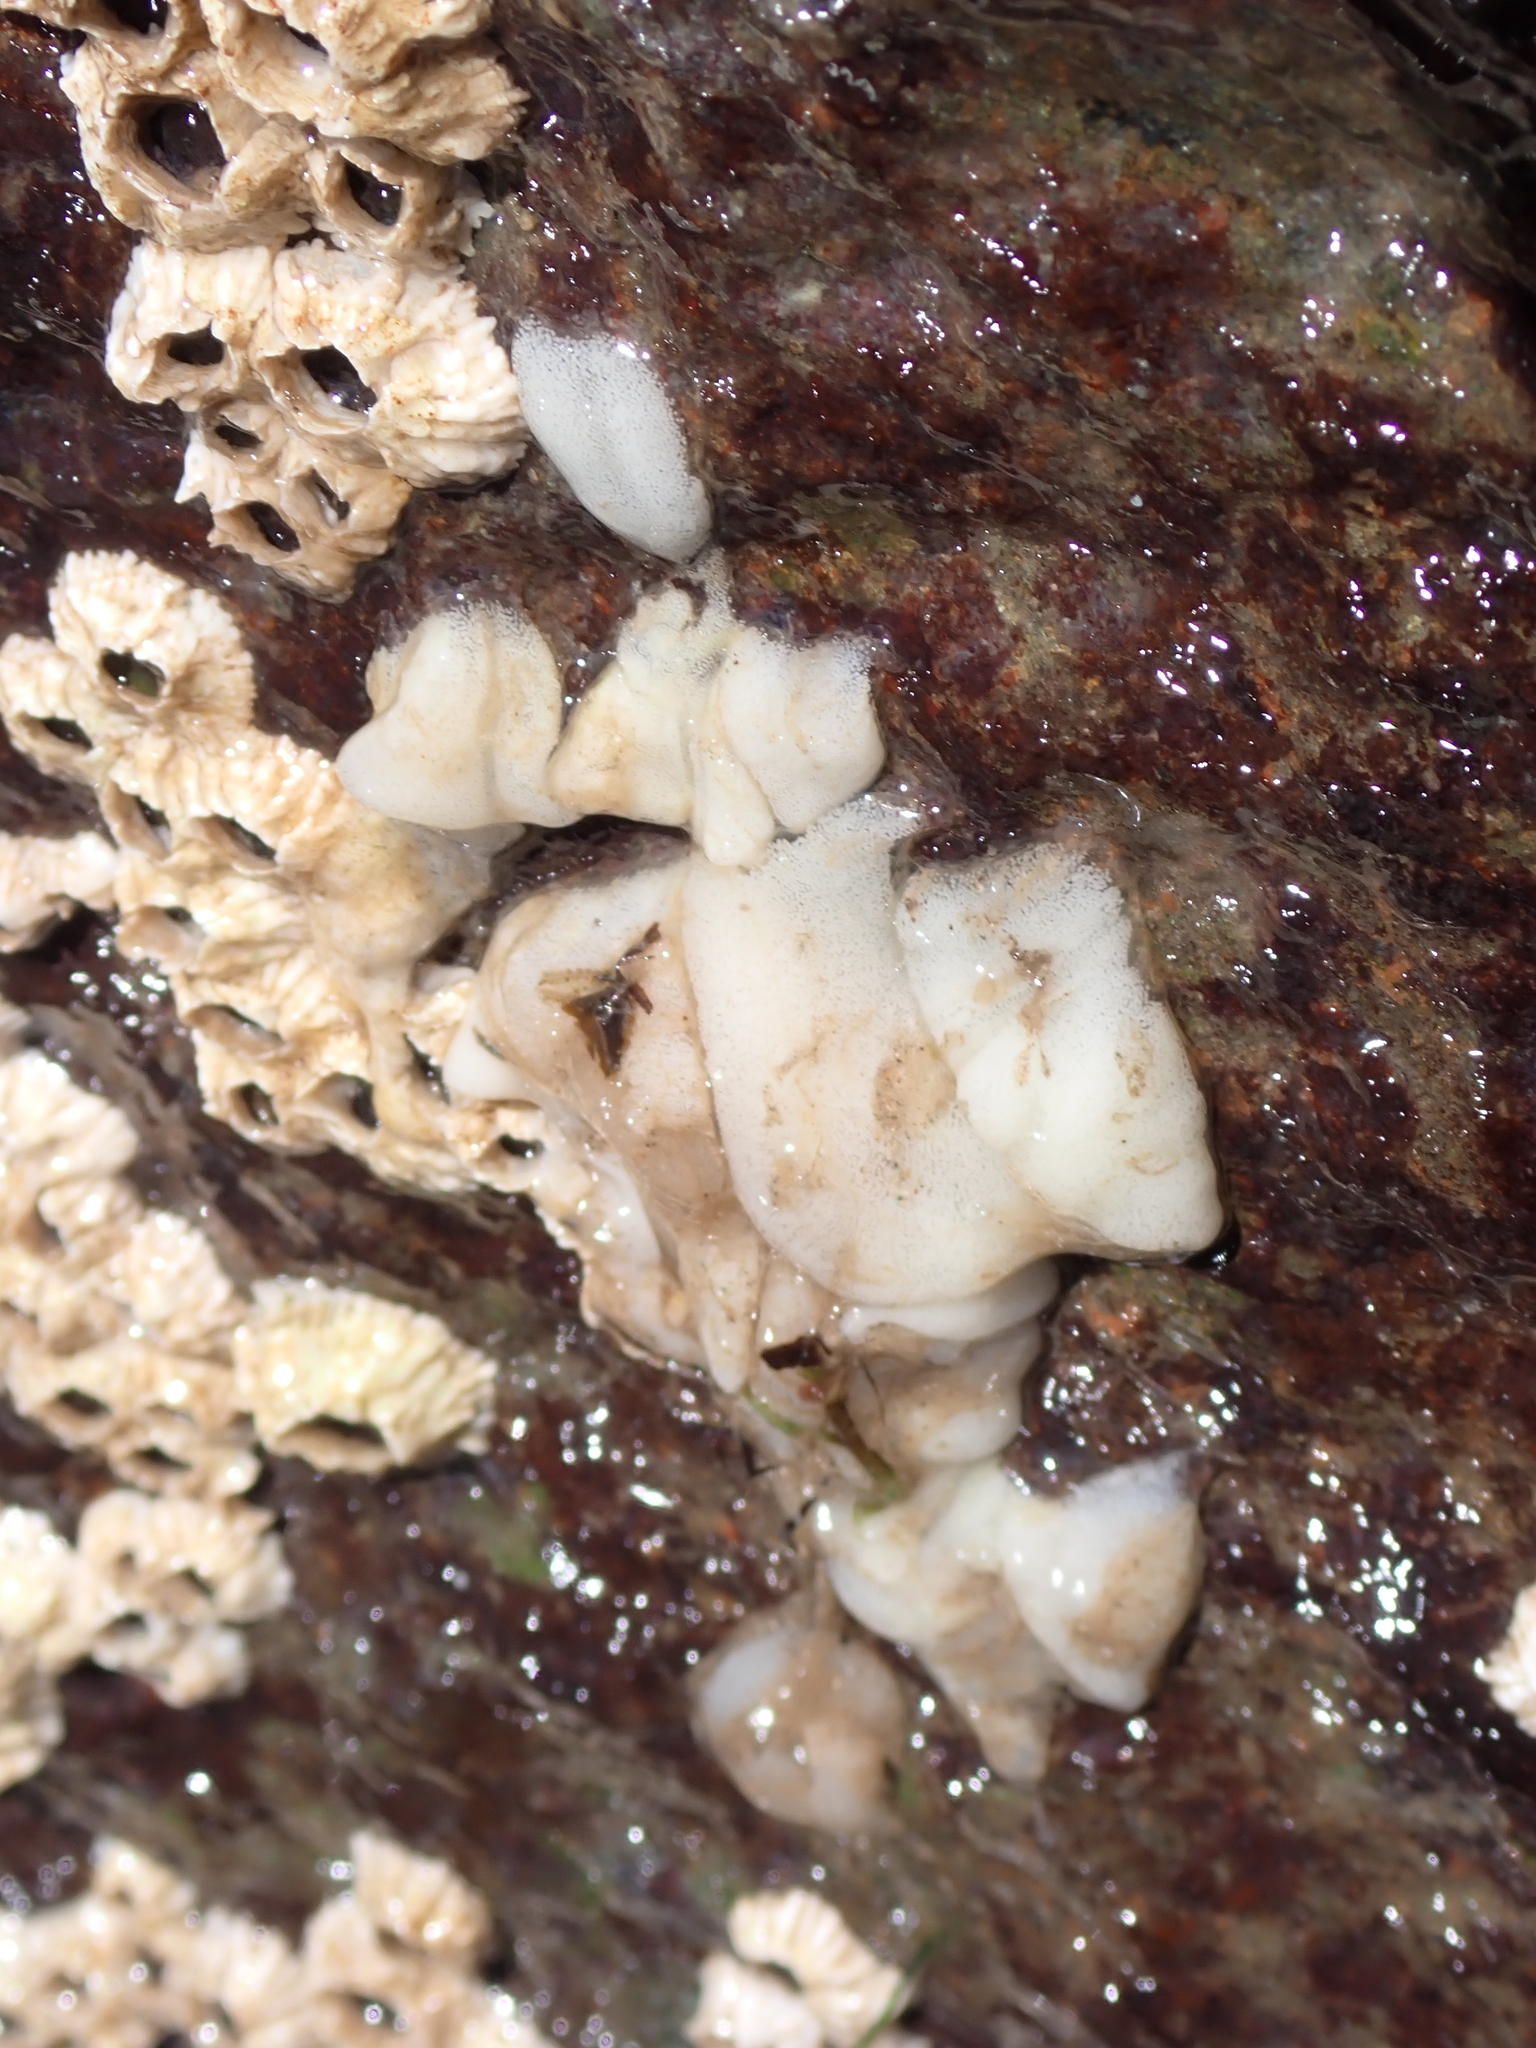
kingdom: Animalia
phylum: Mollusca
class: Gastropoda
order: Nudibranchia
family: Onchidorididae
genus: Onchidoris
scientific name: Onchidoris bilamellata
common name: Barnacle-eating onchidoris
